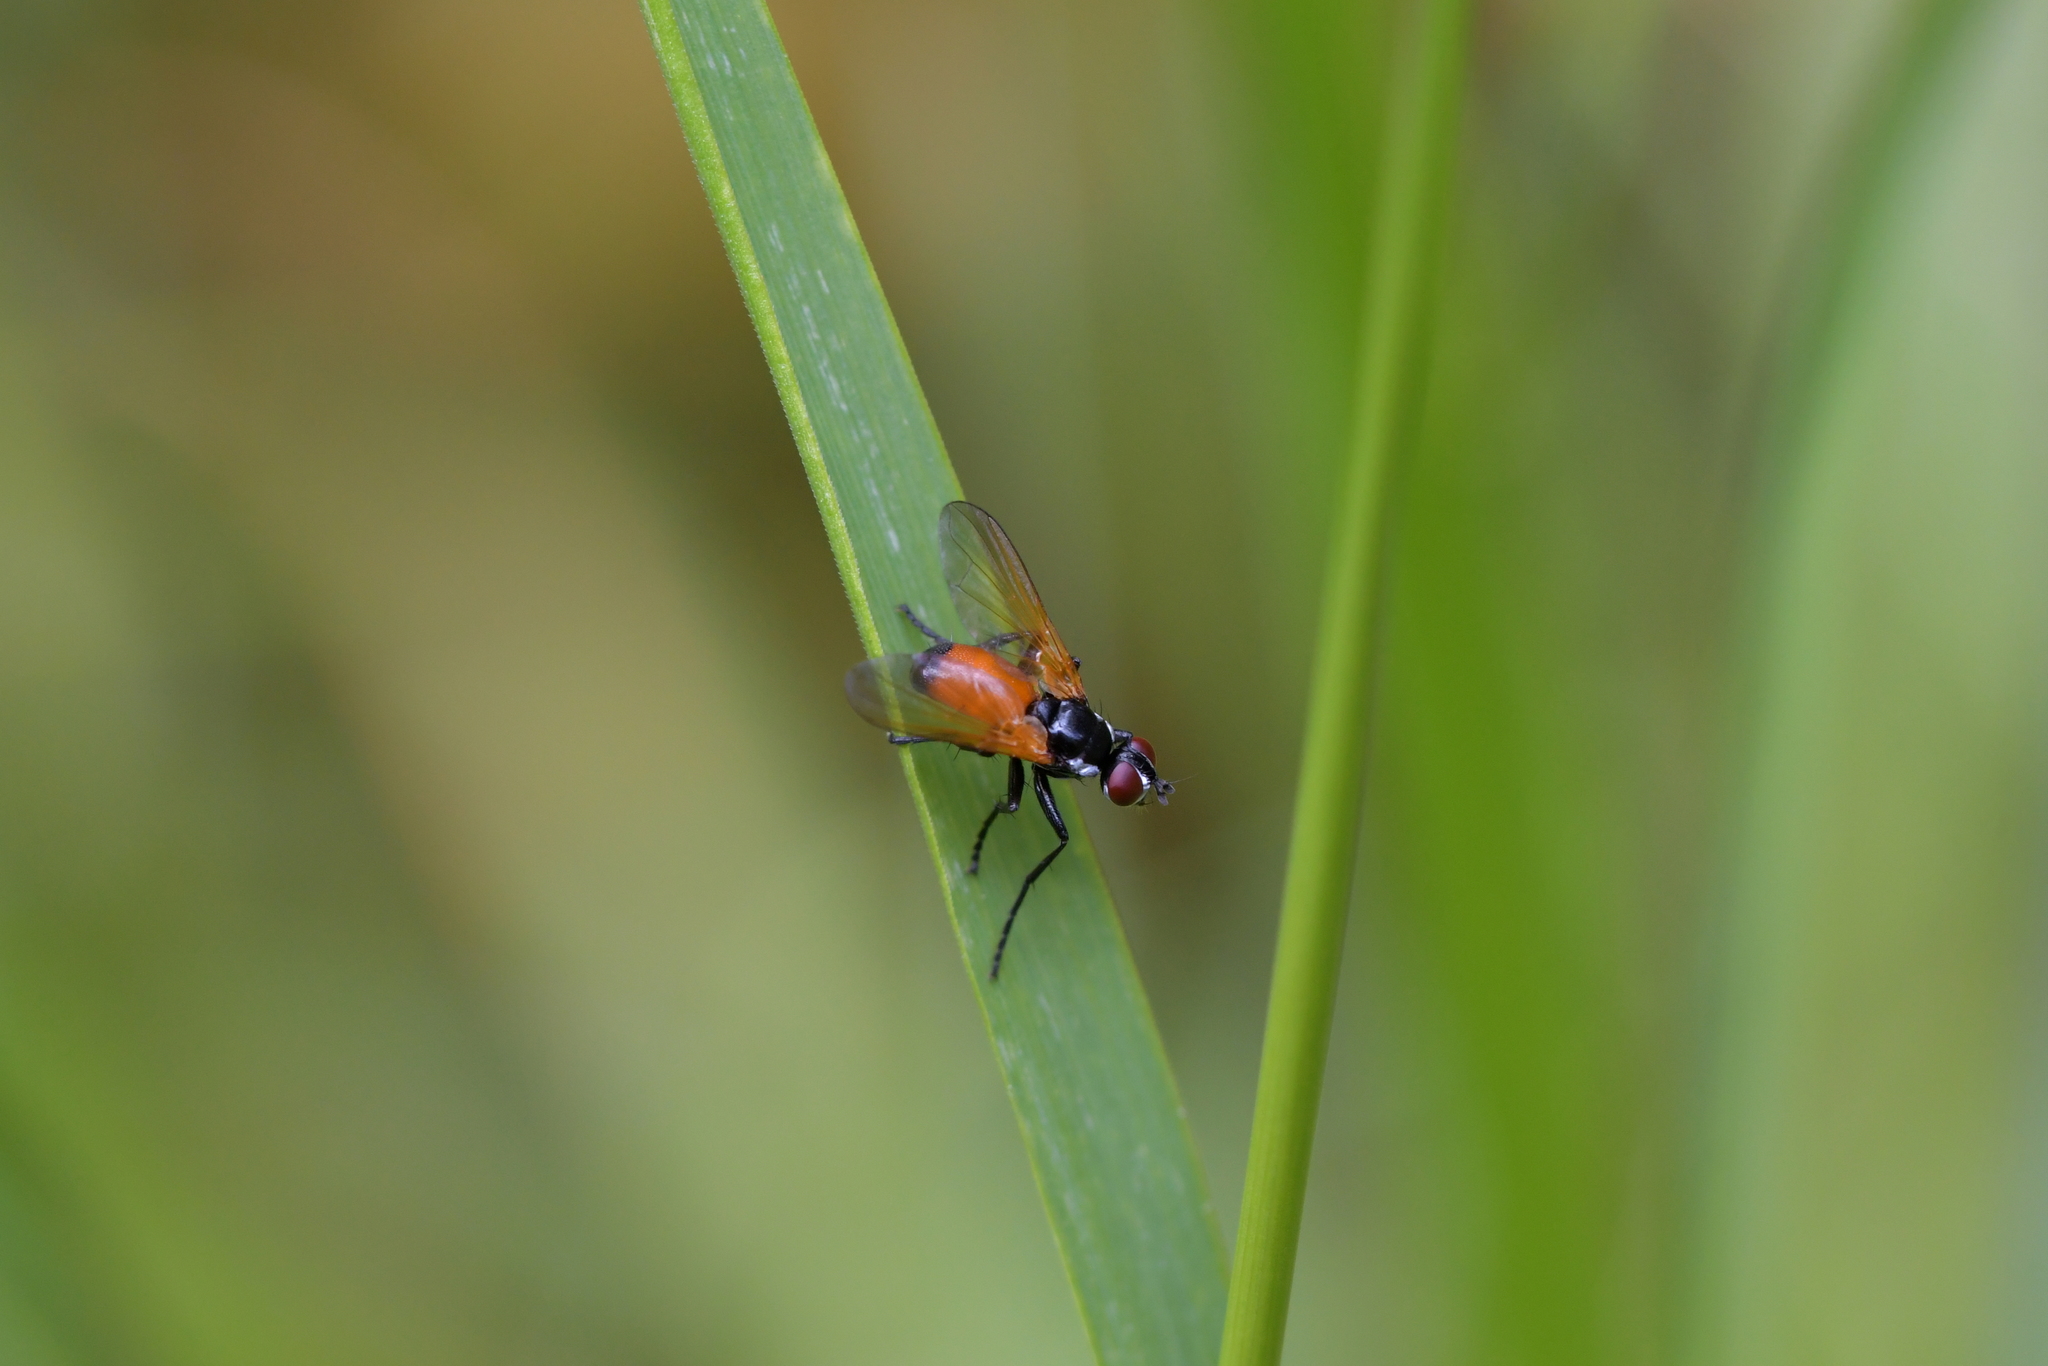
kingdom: Animalia
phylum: Arthropoda
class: Insecta
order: Diptera
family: Tachinidae
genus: Huttonobesseria
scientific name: Huttonobesseria verecunda
